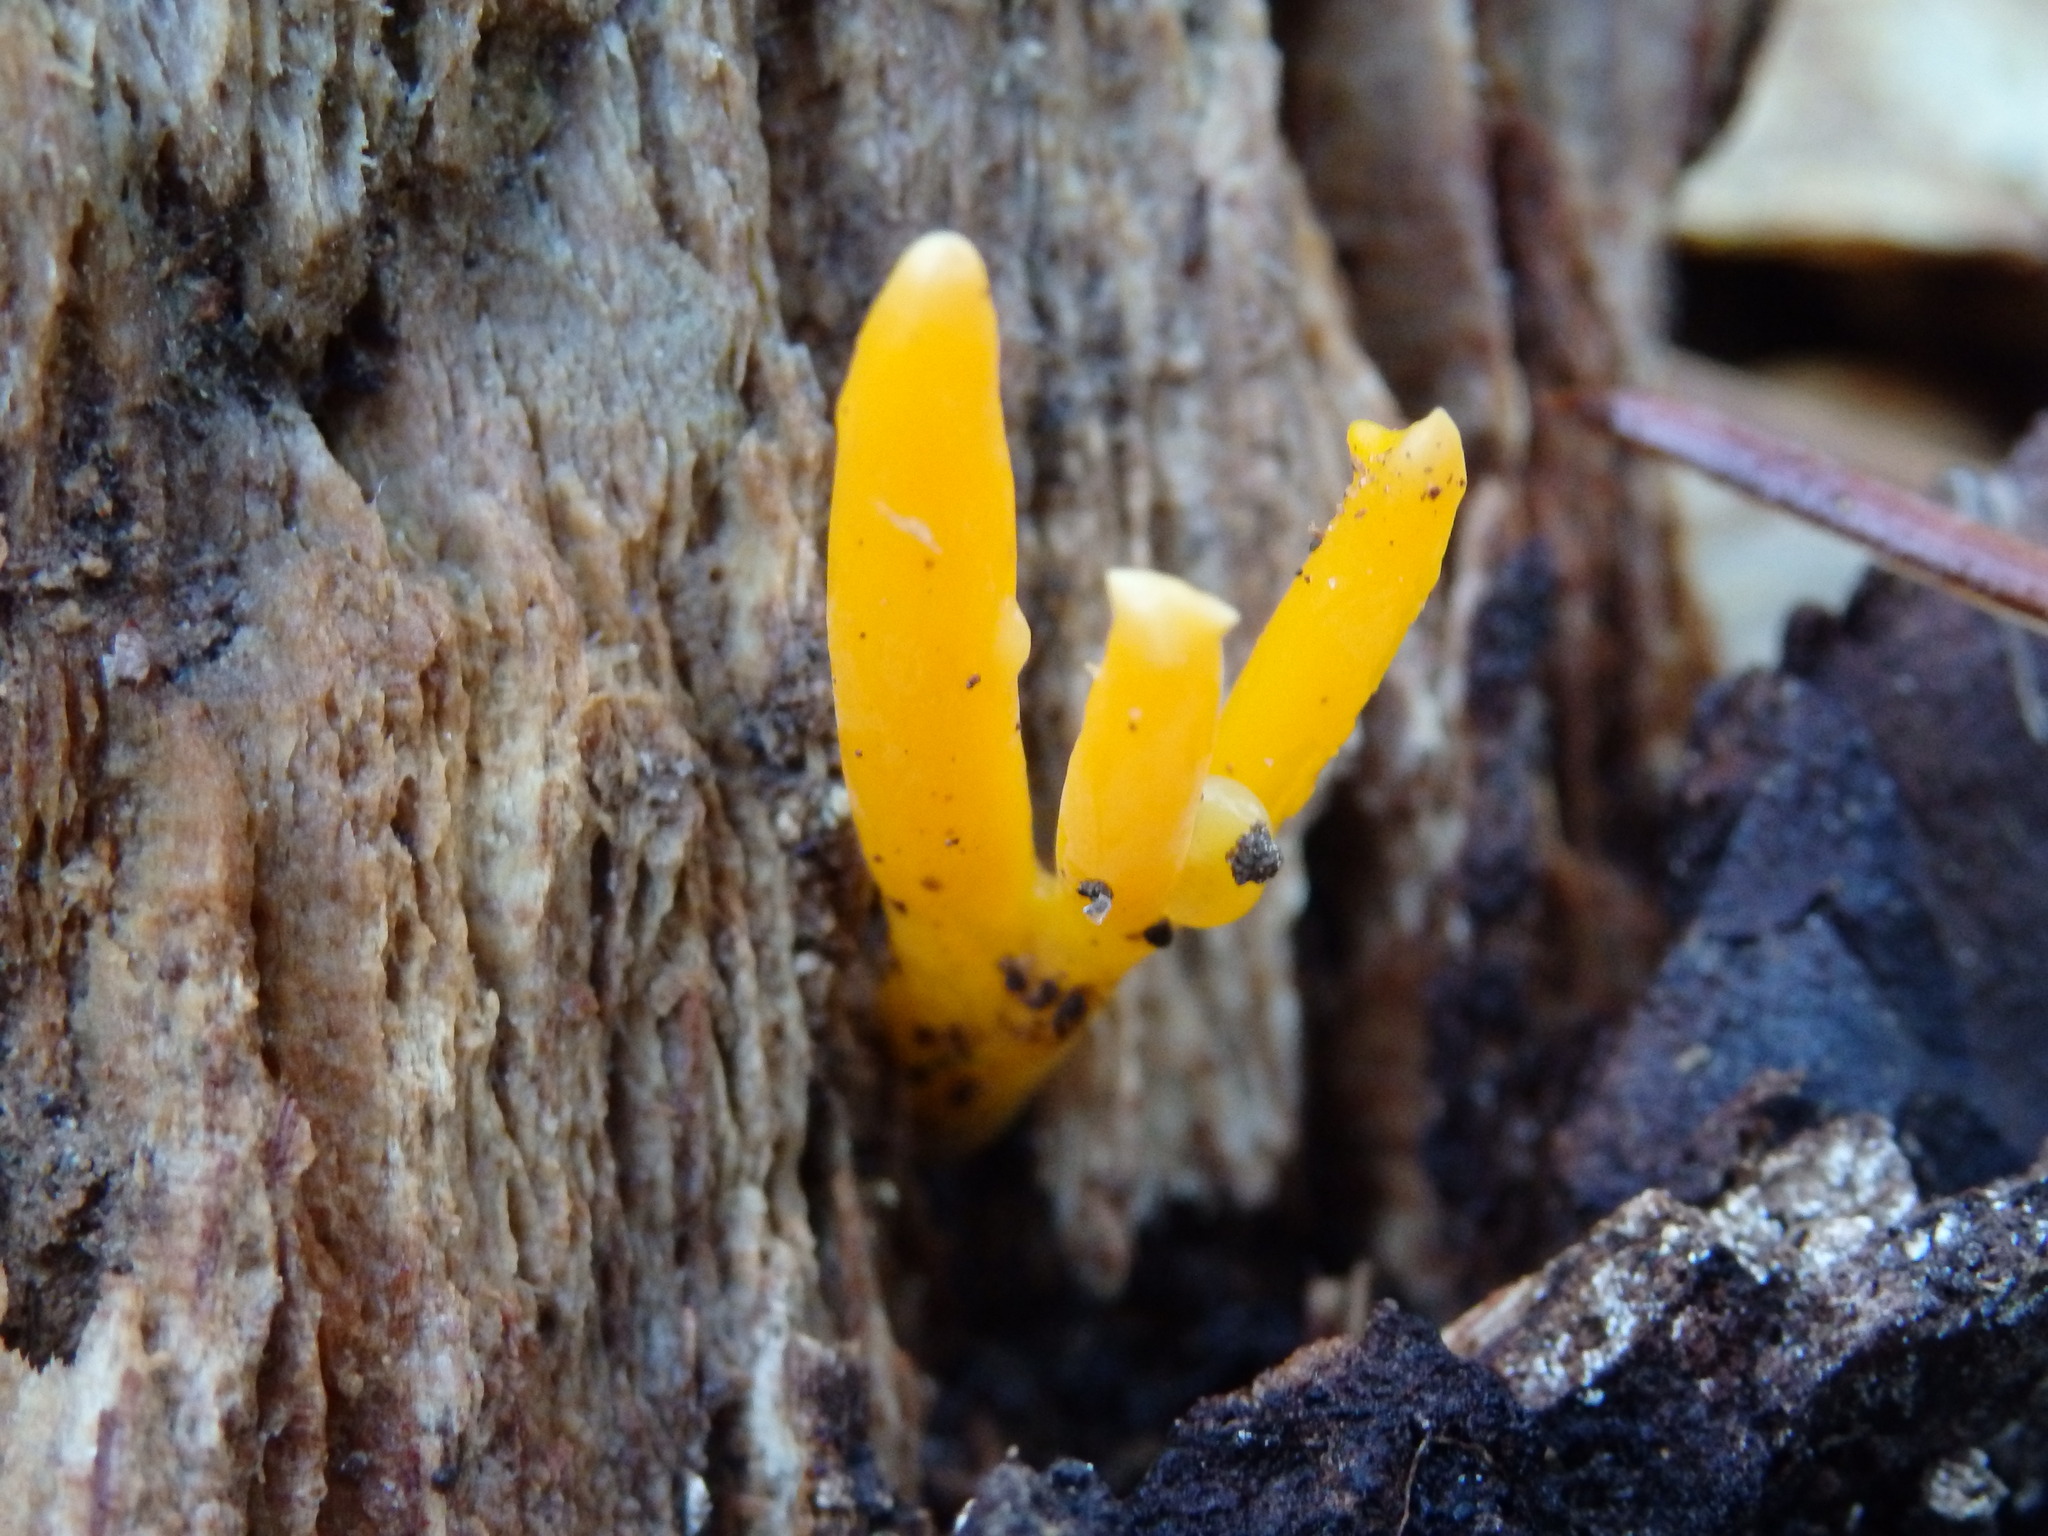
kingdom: Fungi
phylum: Basidiomycota
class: Dacrymycetes
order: Dacrymycetales
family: Dacrymycetaceae
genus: Calocera
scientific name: Calocera viscosa
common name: Yellow stagshorn
